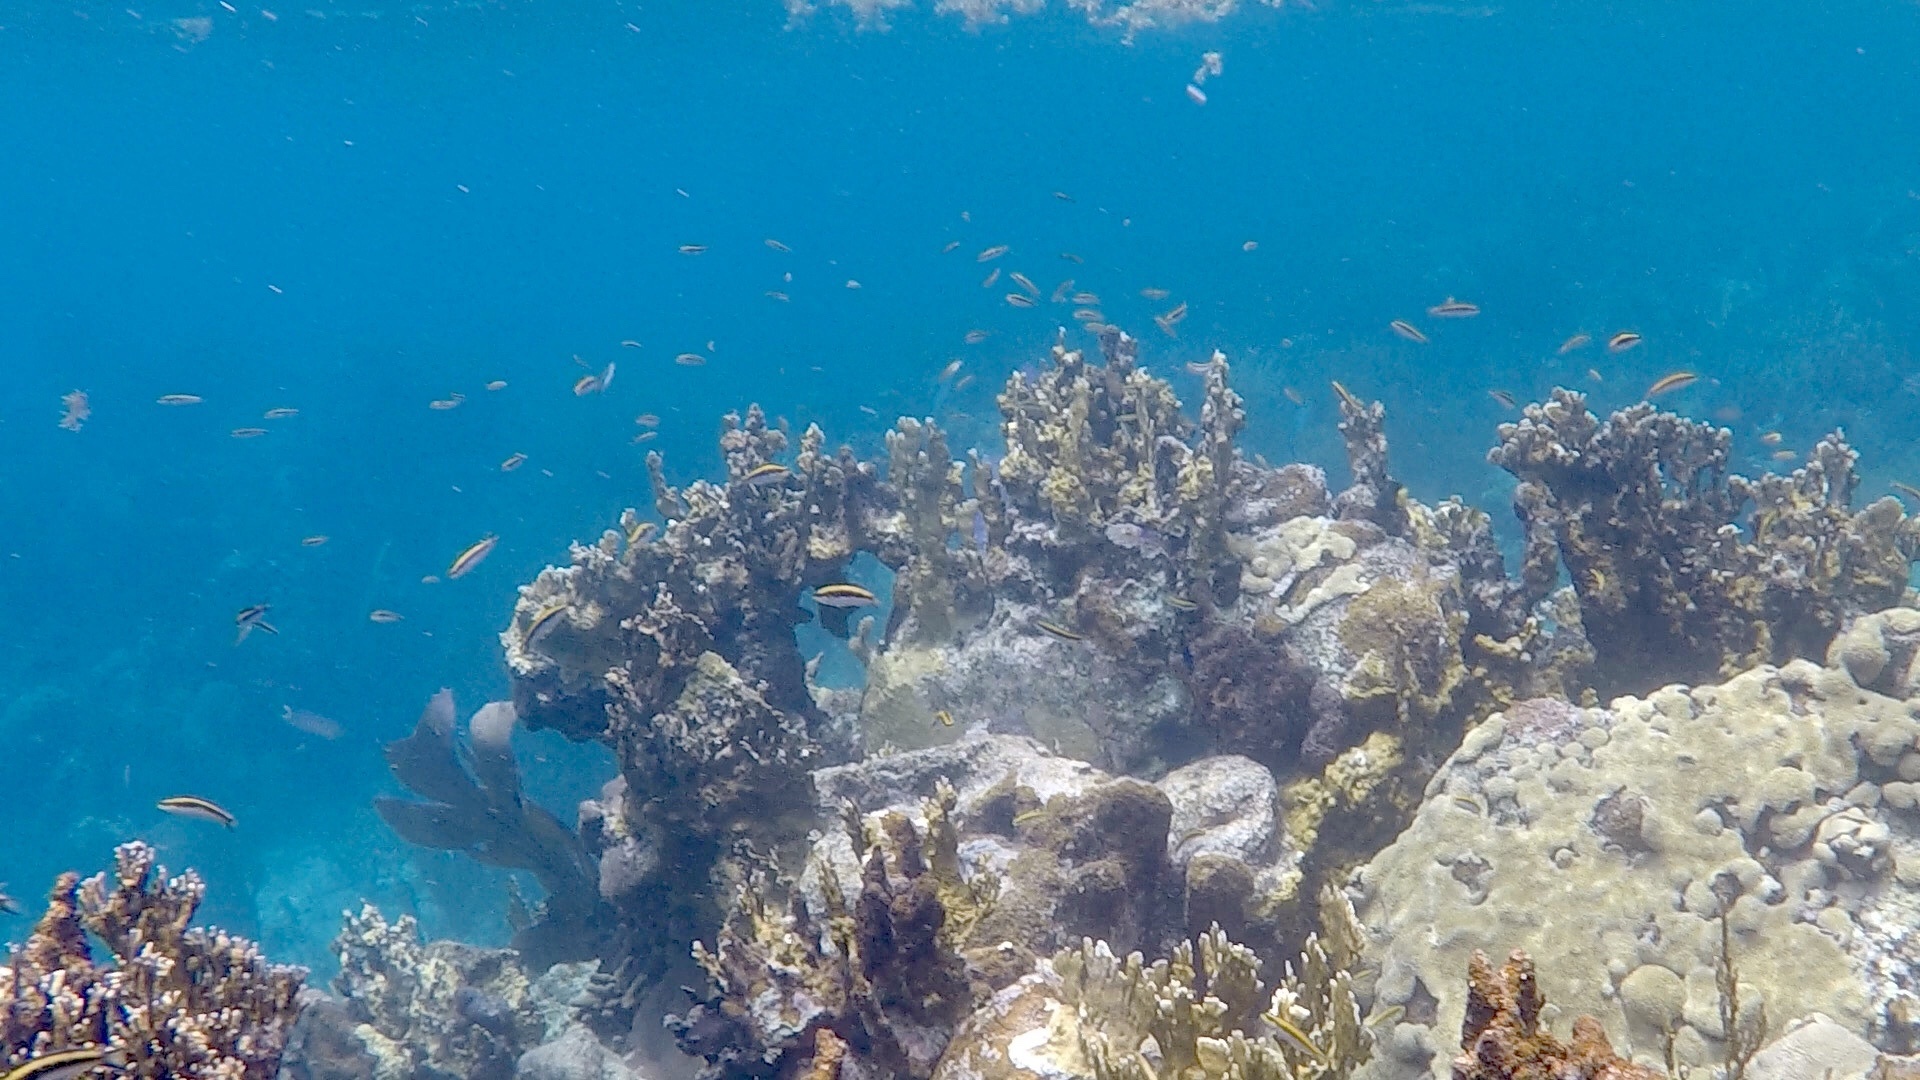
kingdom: Animalia
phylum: Cnidaria
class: Hydrozoa
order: Anthoathecata
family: Milleporidae
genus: Millepora
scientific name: Millepora complanata
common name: Bladed fire coral
